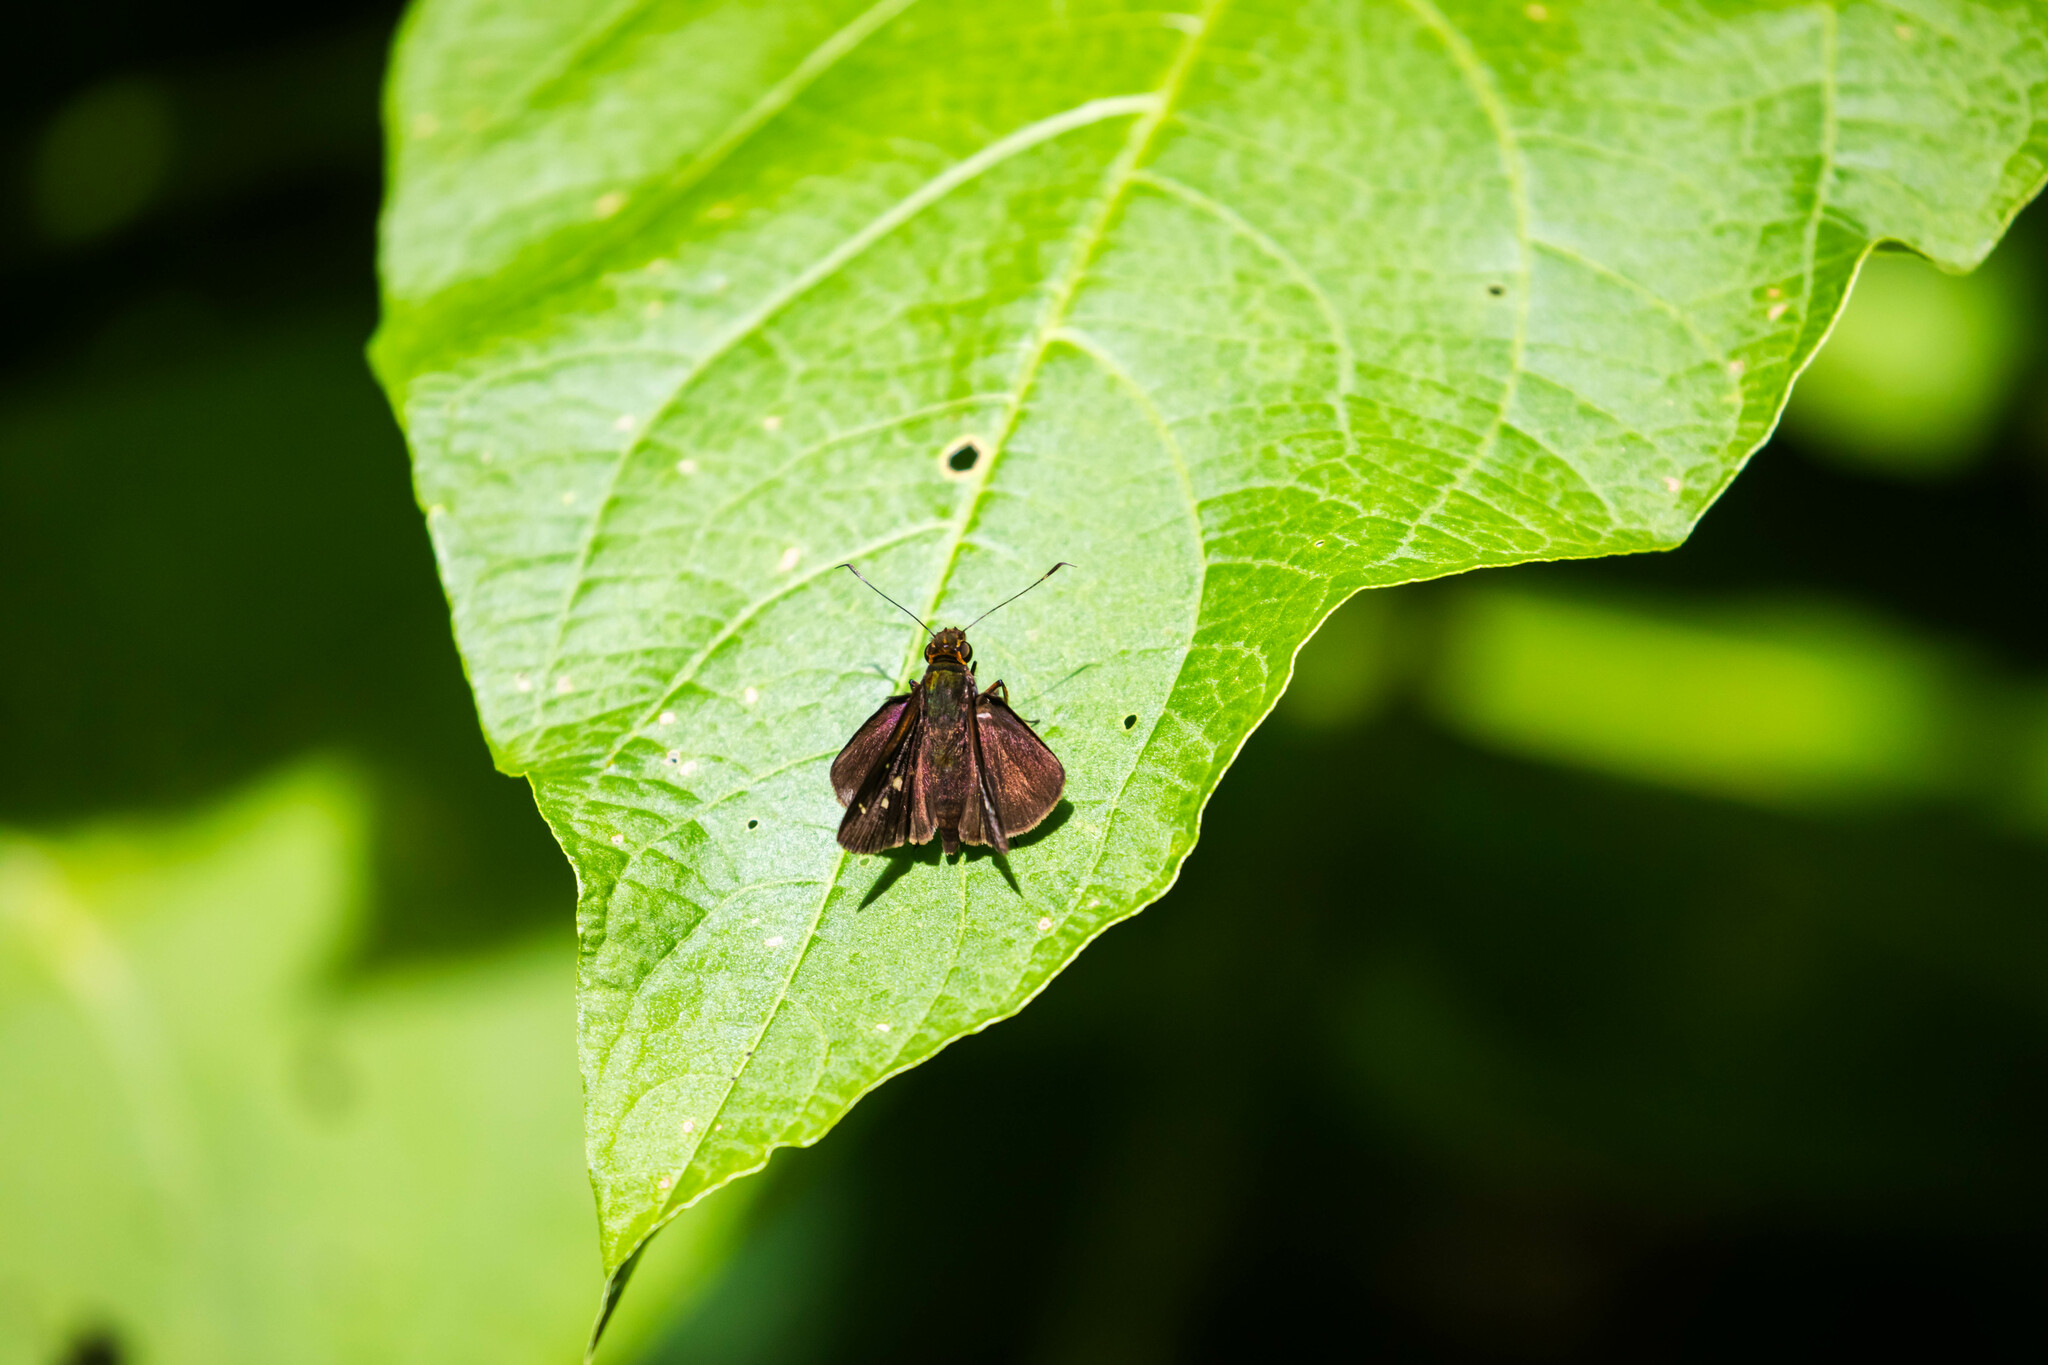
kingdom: Animalia
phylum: Arthropoda
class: Insecta
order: Lepidoptera
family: Hesperiidae
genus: Justinia
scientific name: Justinia gava
